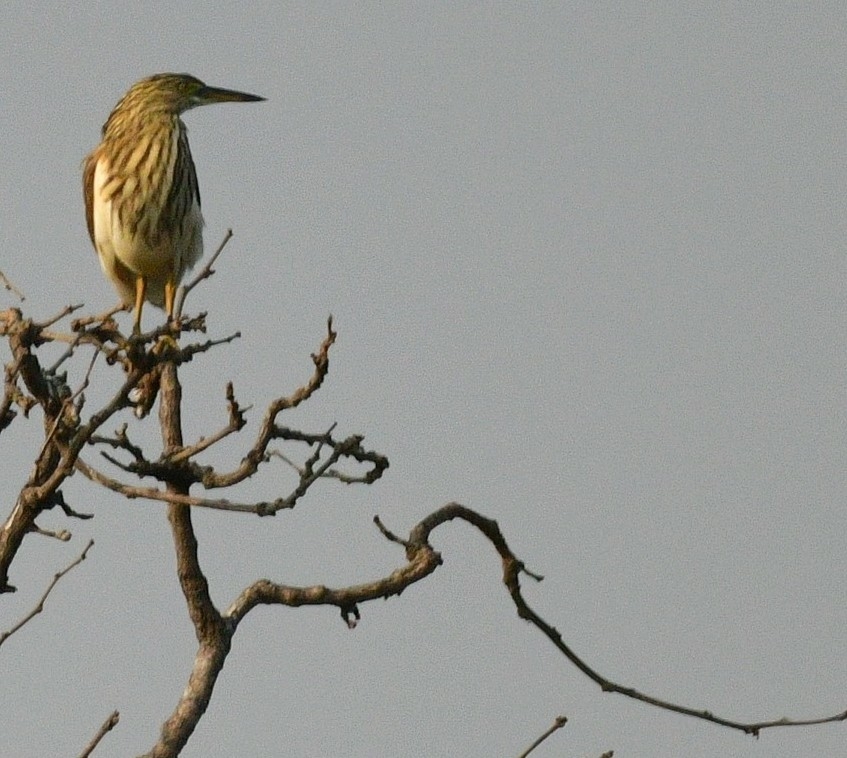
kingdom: Animalia
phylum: Chordata
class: Aves
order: Pelecaniformes
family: Ardeidae
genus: Ardeola
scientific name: Ardeola grayii
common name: Indian pond heron
